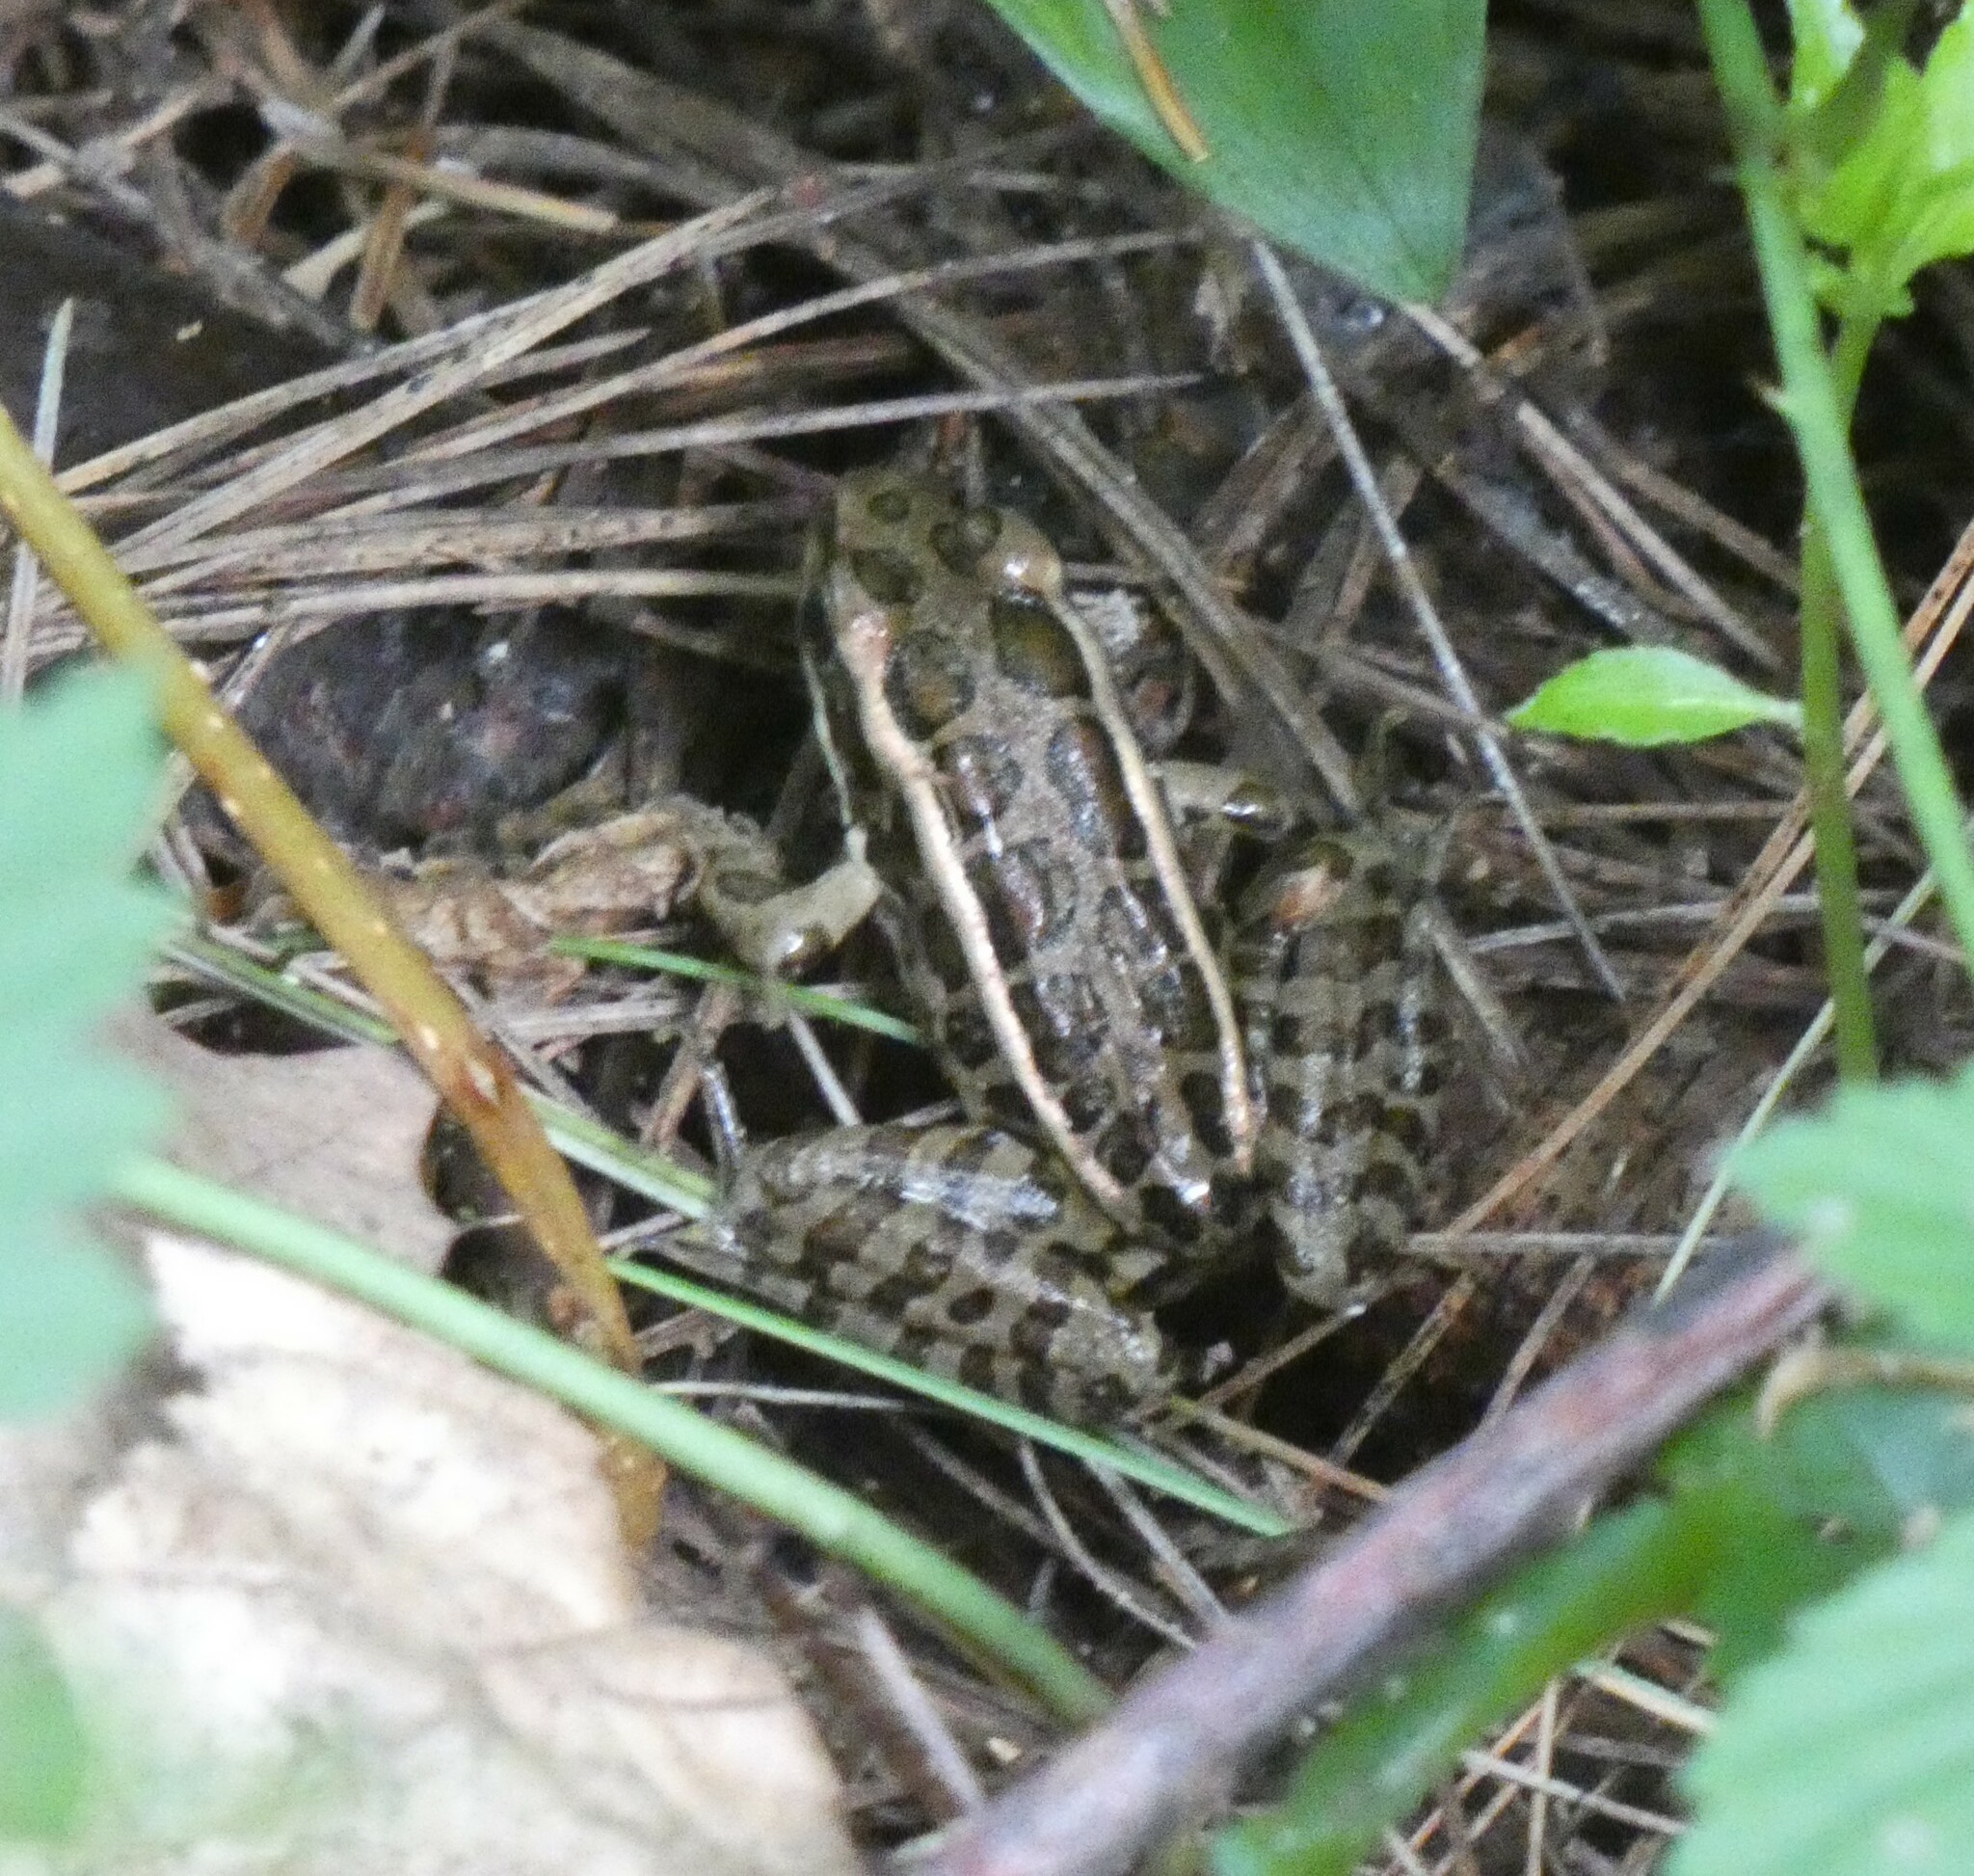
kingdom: Animalia
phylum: Chordata
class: Amphibia
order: Anura
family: Ranidae
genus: Lithobates
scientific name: Lithobates palustris
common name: Pickerel frog
